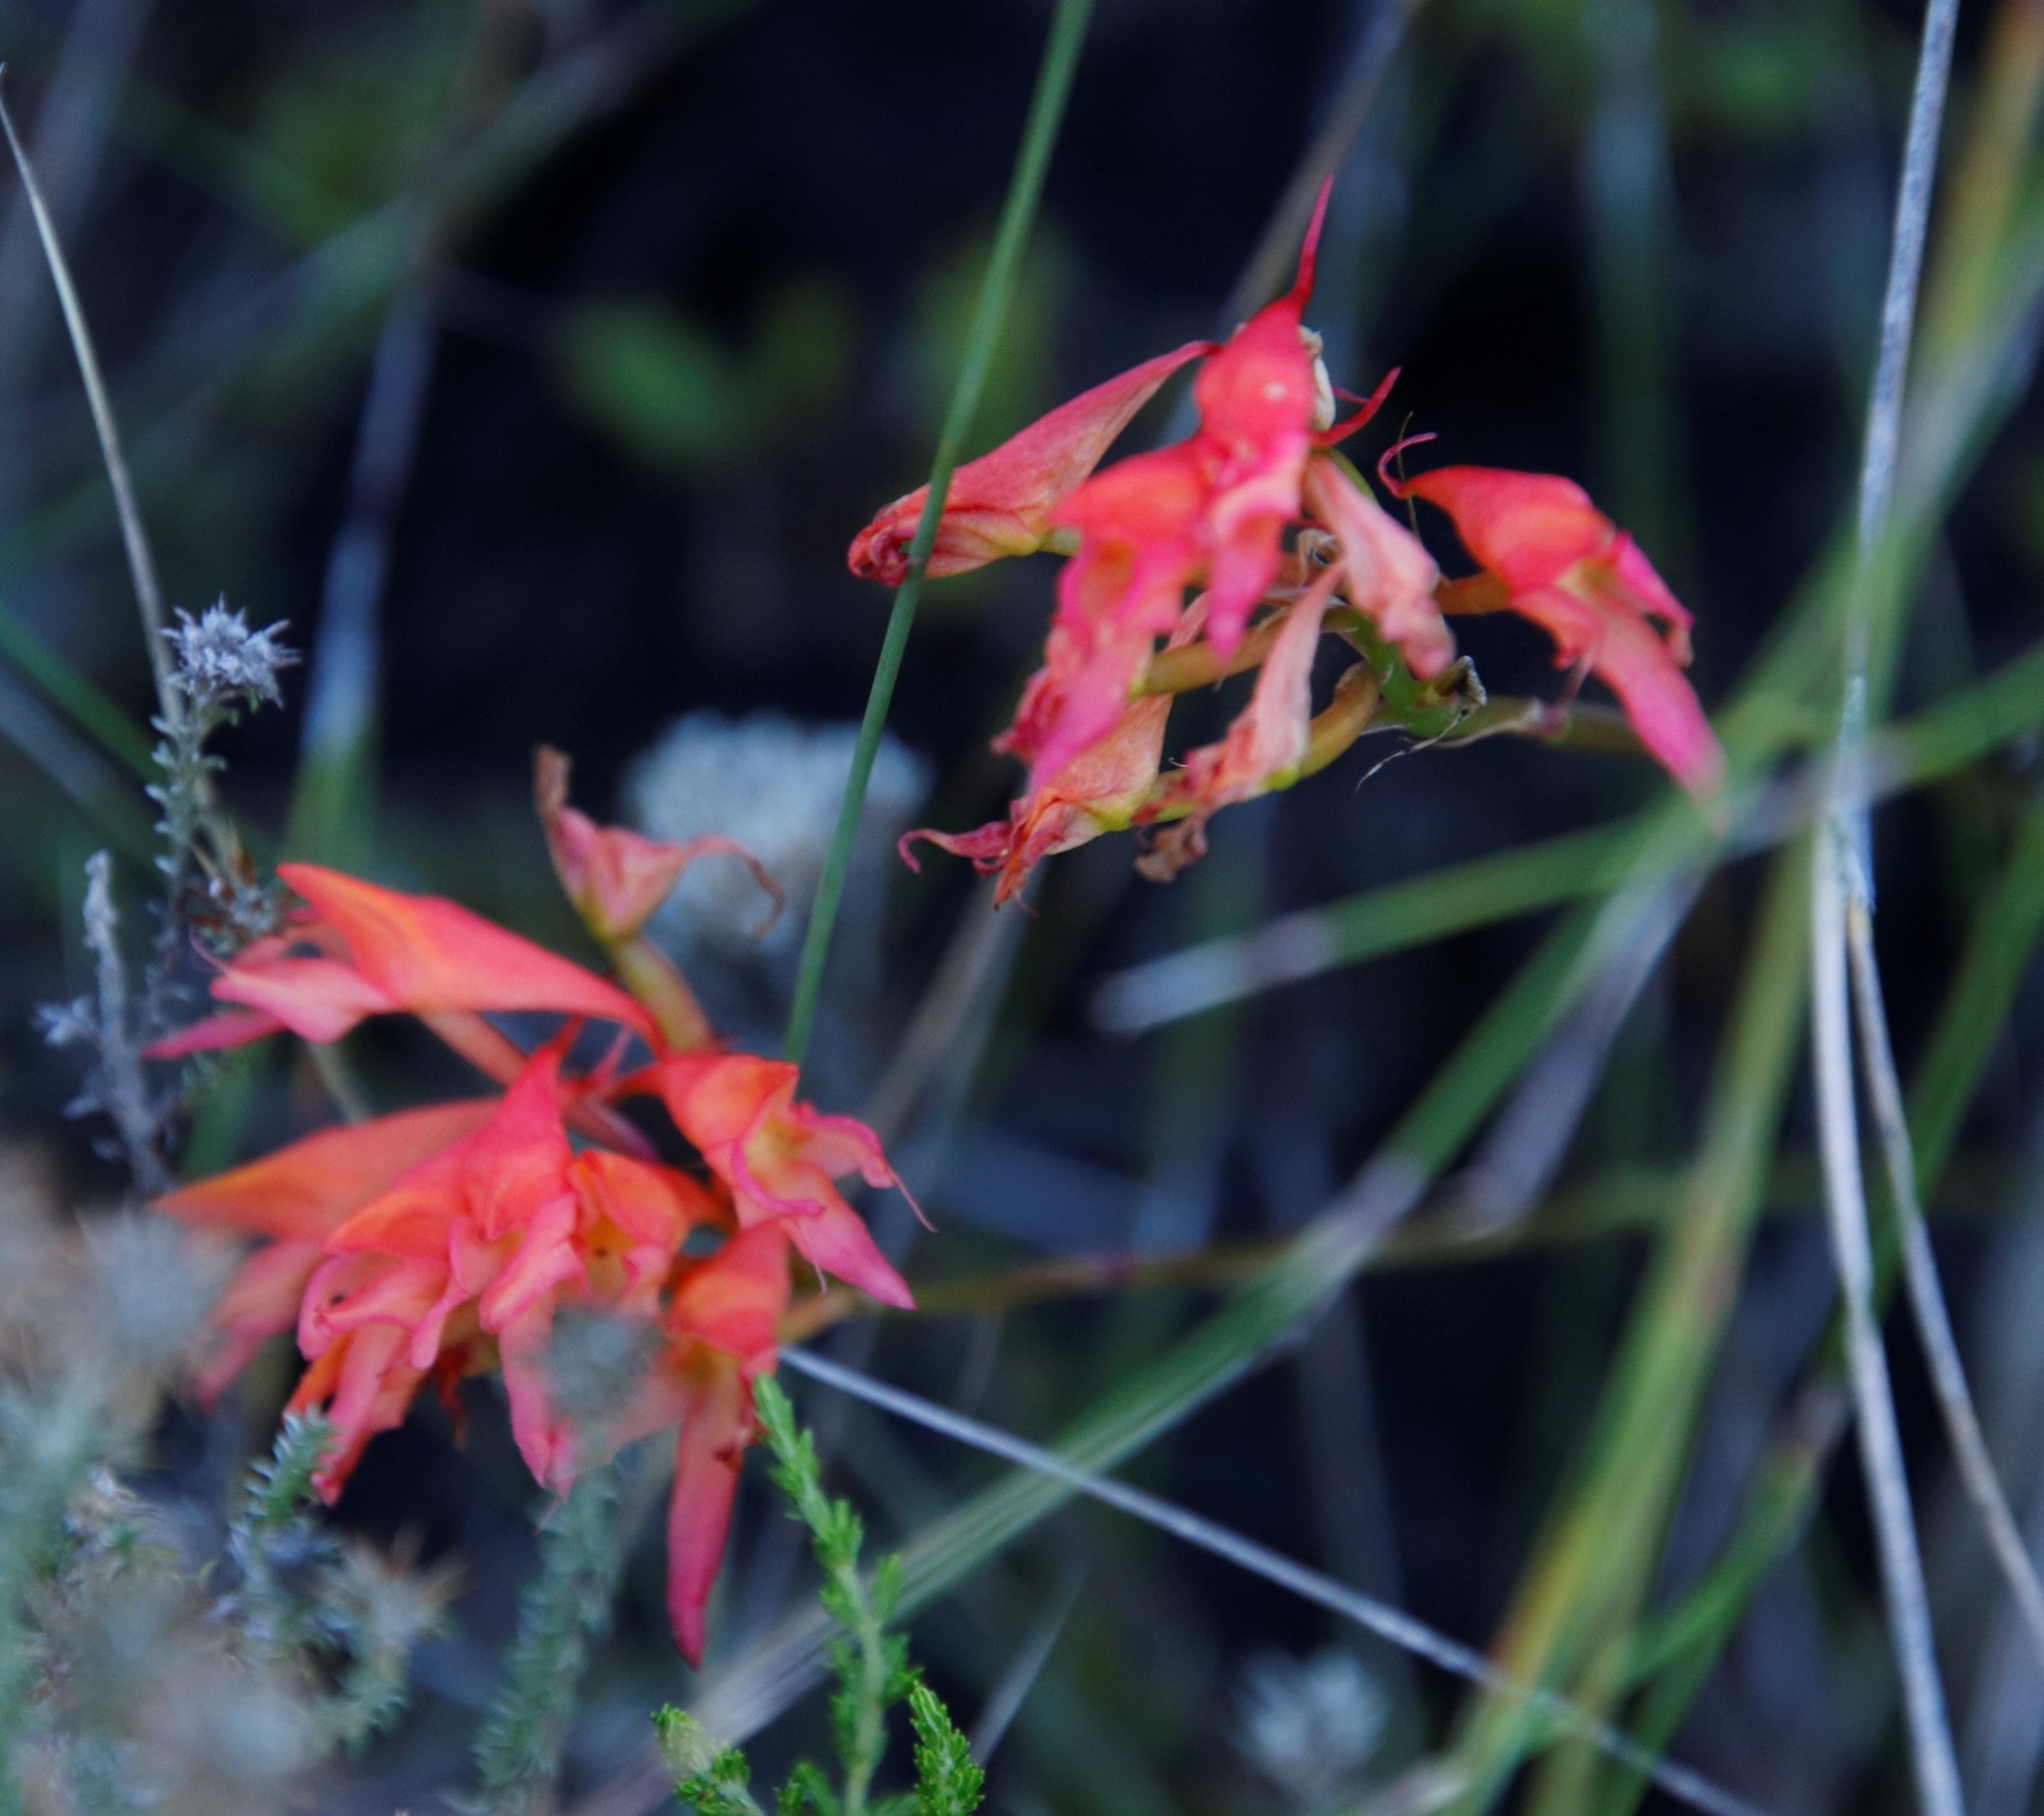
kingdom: Plantae
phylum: Tracheophyta
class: Liliopsida
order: Asparagales
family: Orchidaceae
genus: Disa
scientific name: Disa ferruginea
